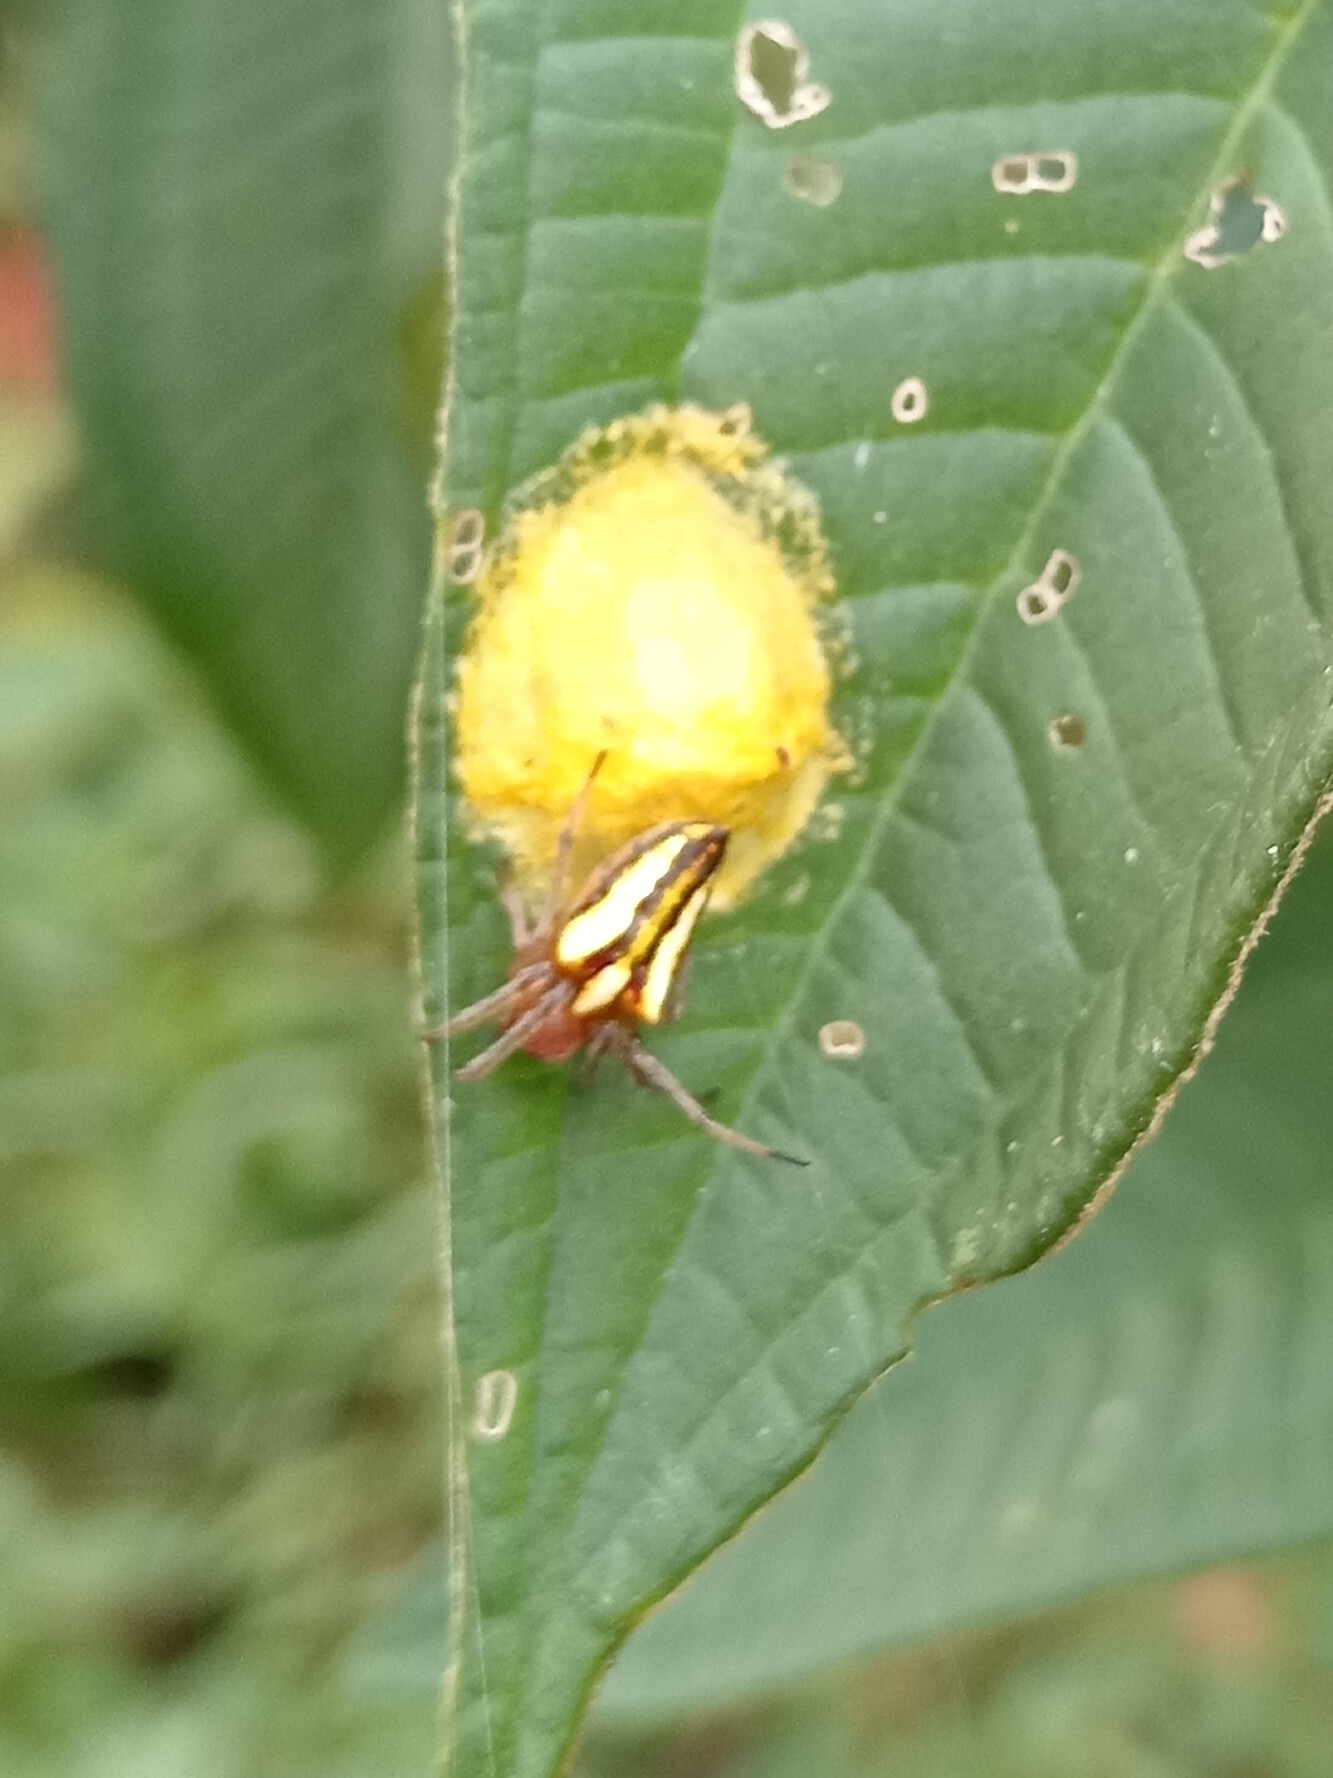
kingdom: Animalia
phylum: Arthropoda
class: Arachnida
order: Araneae
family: Araneidae
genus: Alpaida
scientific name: Alpaida bicornuta
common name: Orb weavers
